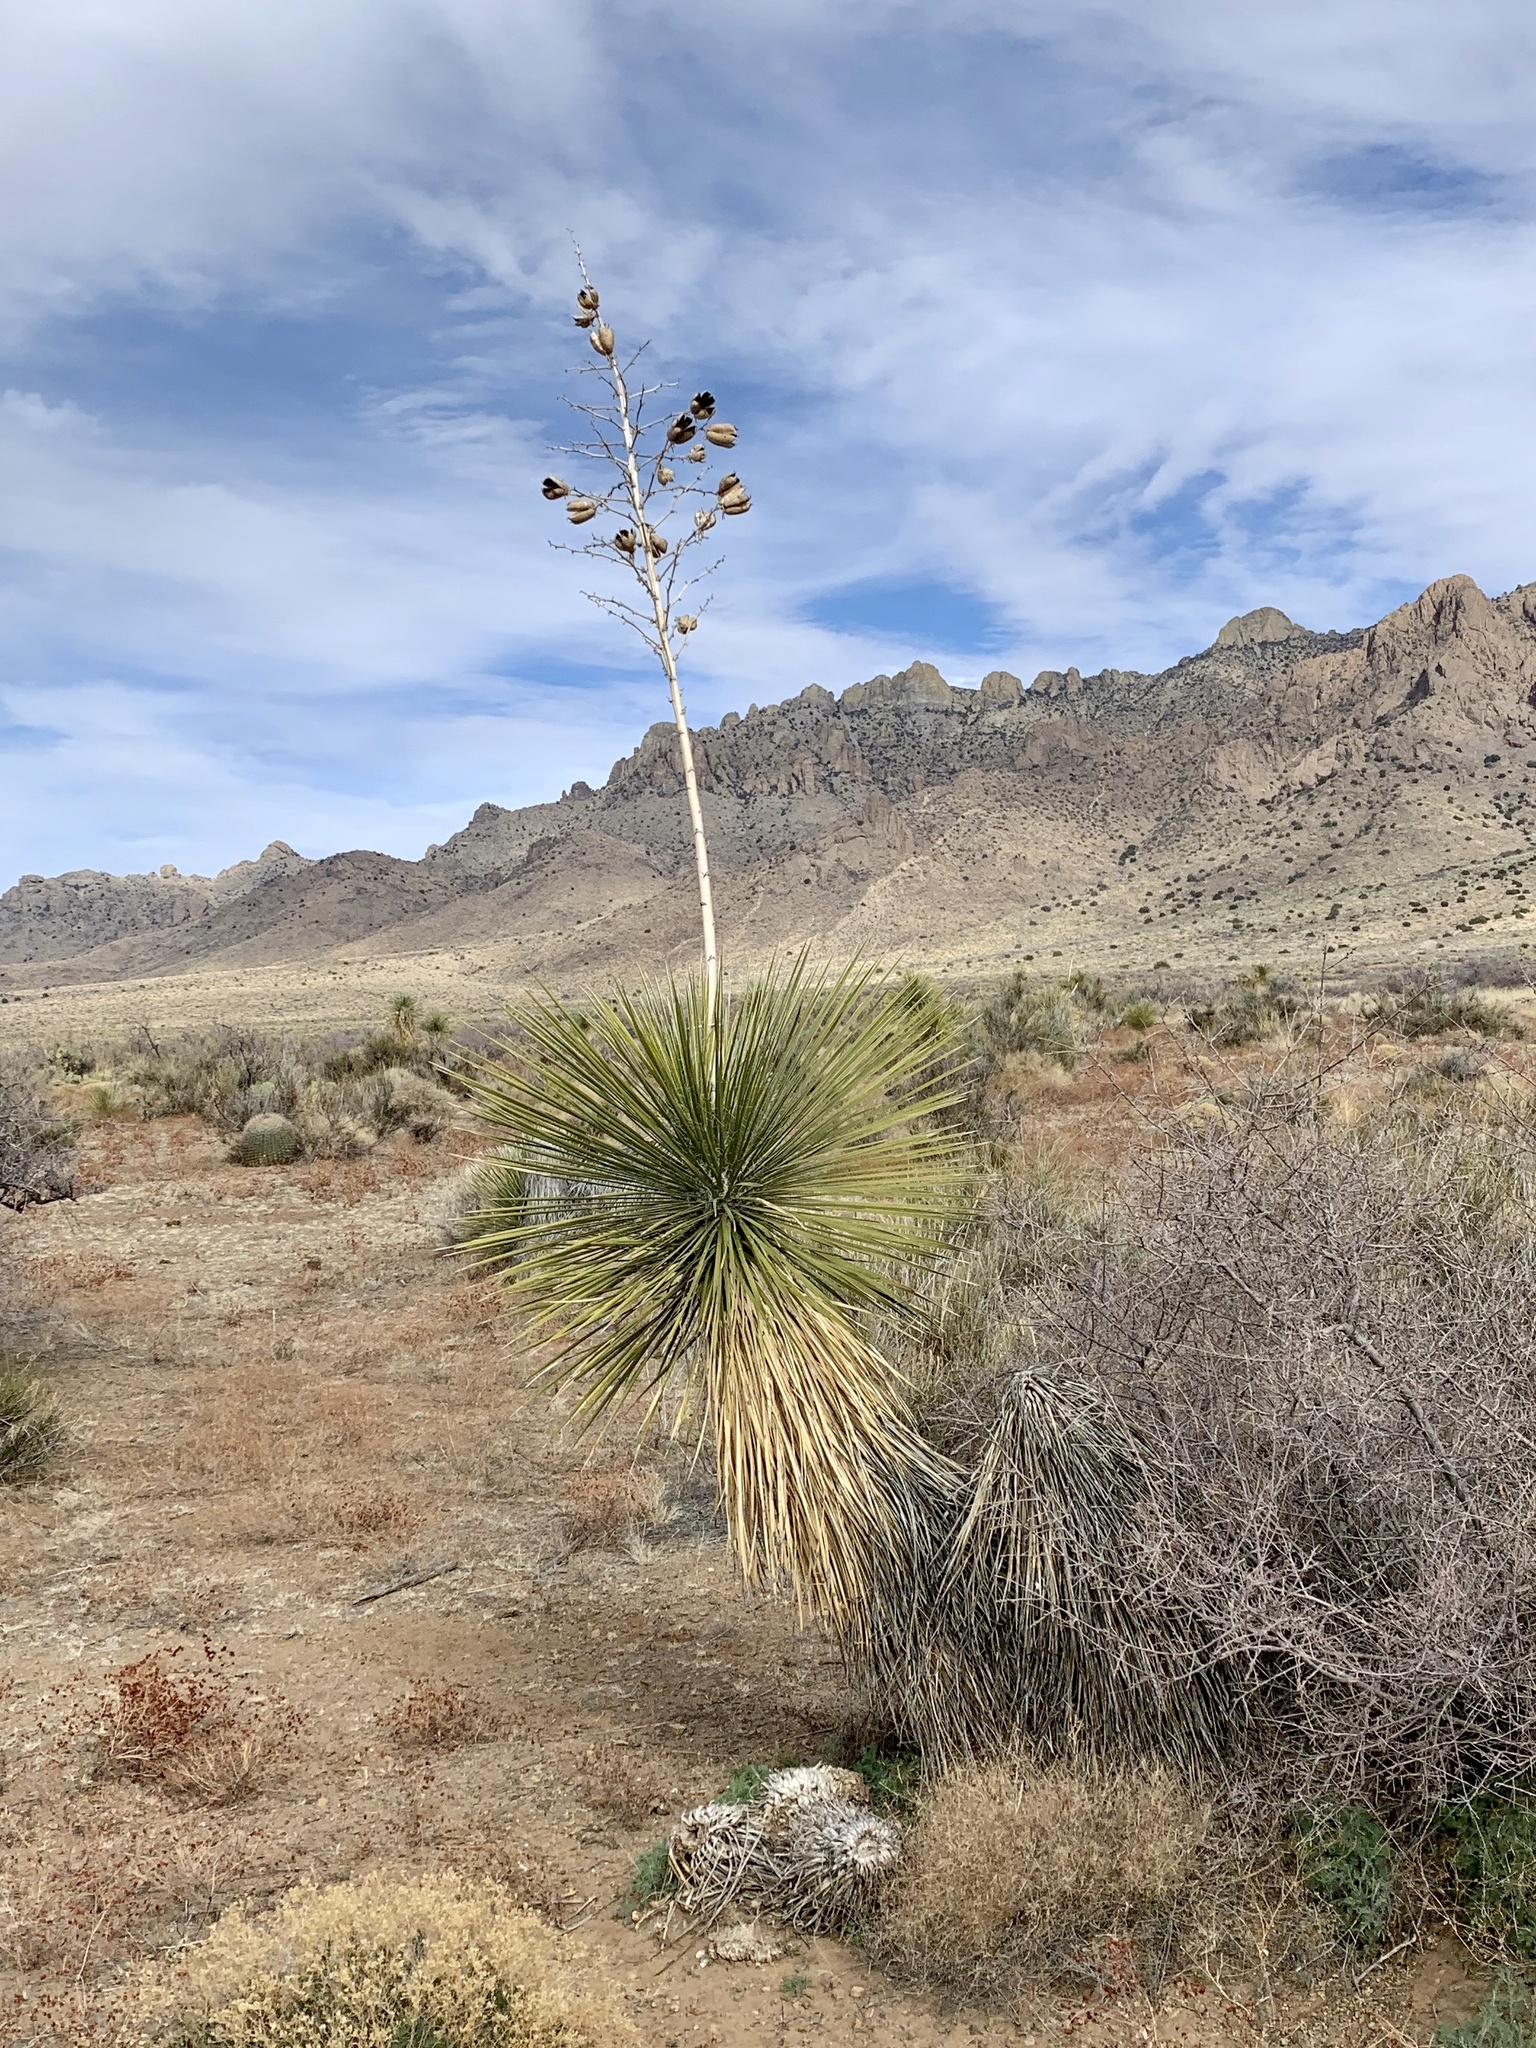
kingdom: Plantae
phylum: Tracheophyta
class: Liliopsida
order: Asparagales
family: Asparagaceae
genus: Yucca
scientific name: Yucca elata
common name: Palmella
